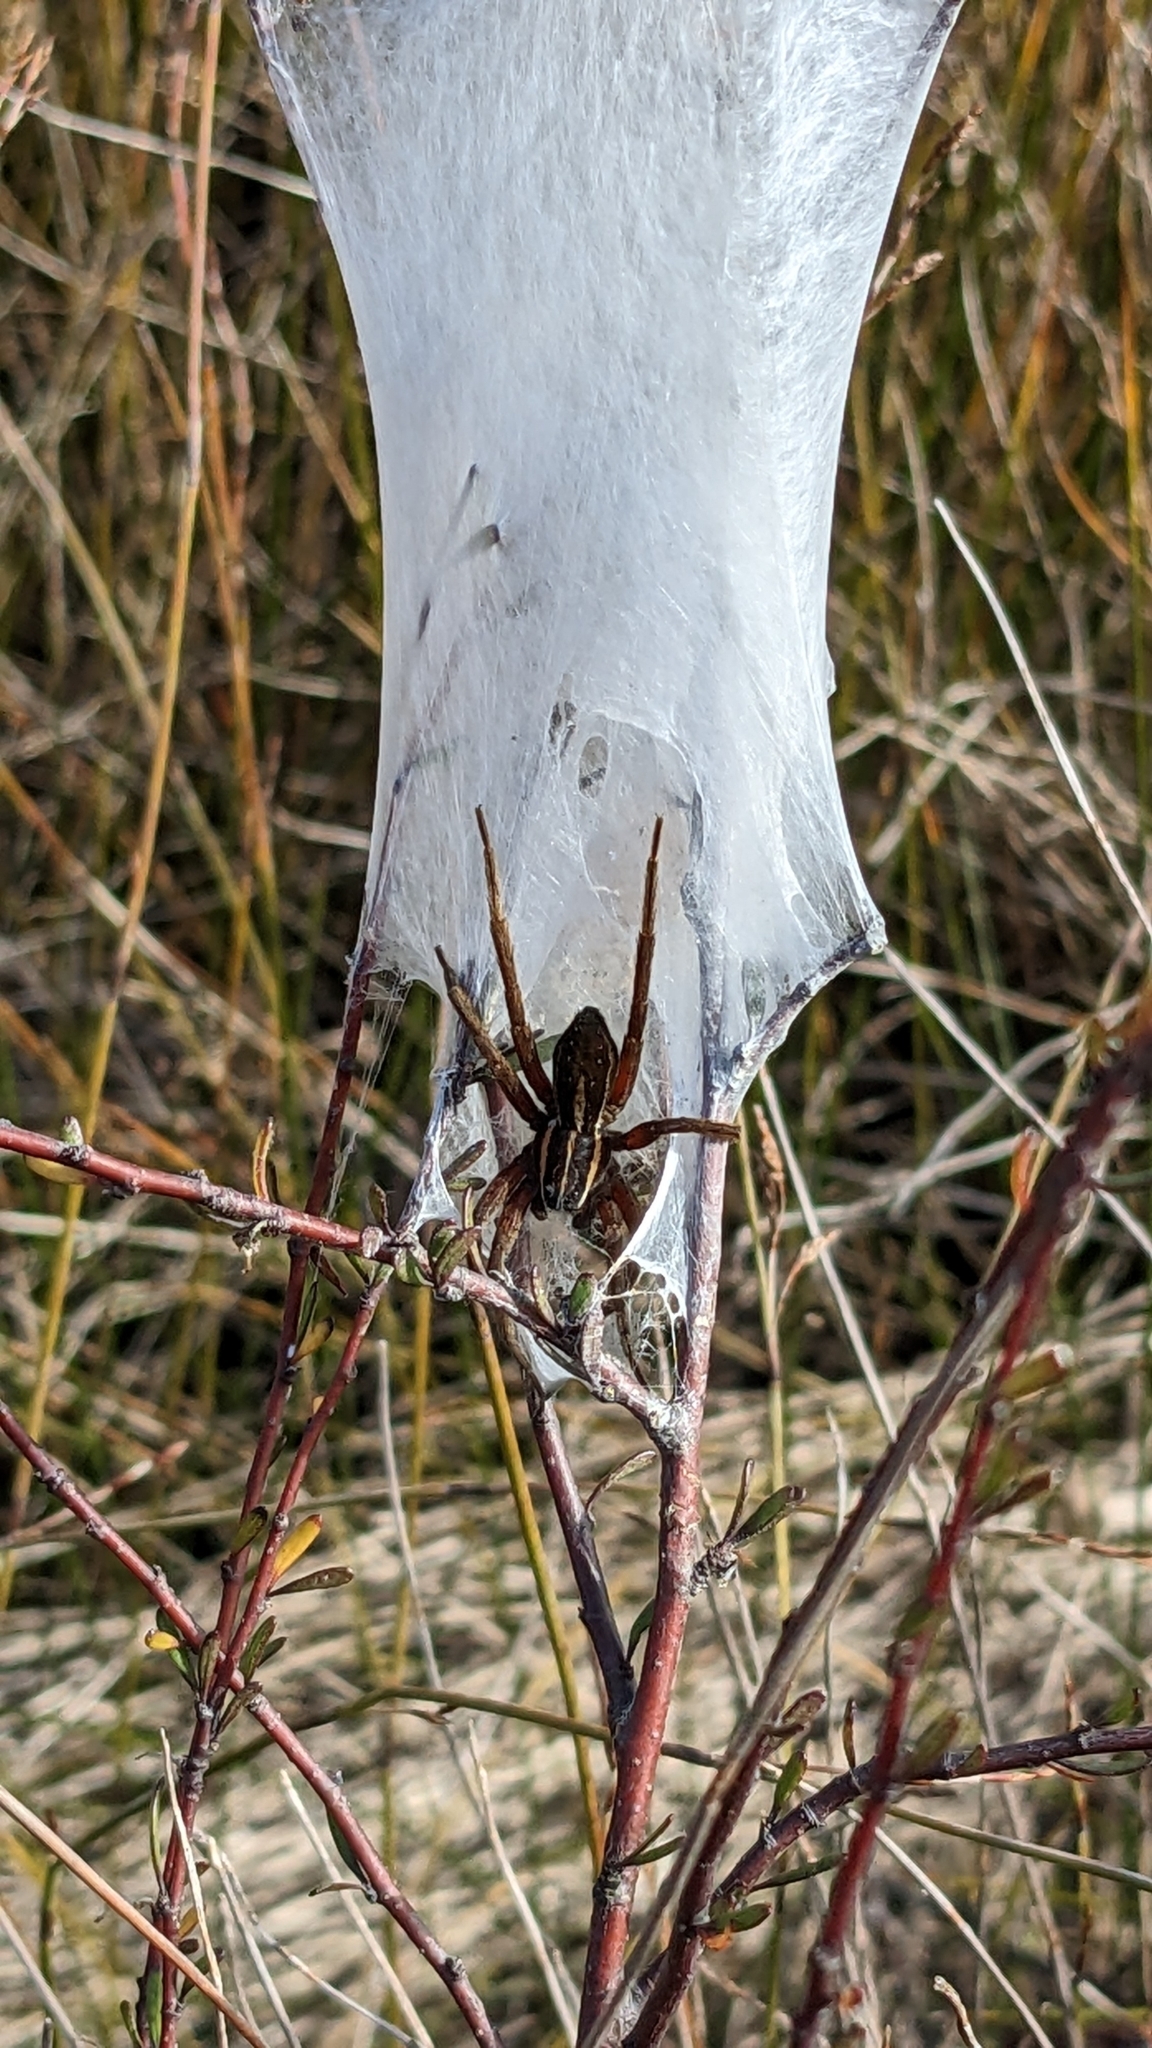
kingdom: Animalia
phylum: Arthropoda
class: Arachnida
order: Araneae
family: Pisauridae
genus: Dolomedes
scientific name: Dolomedes minor
